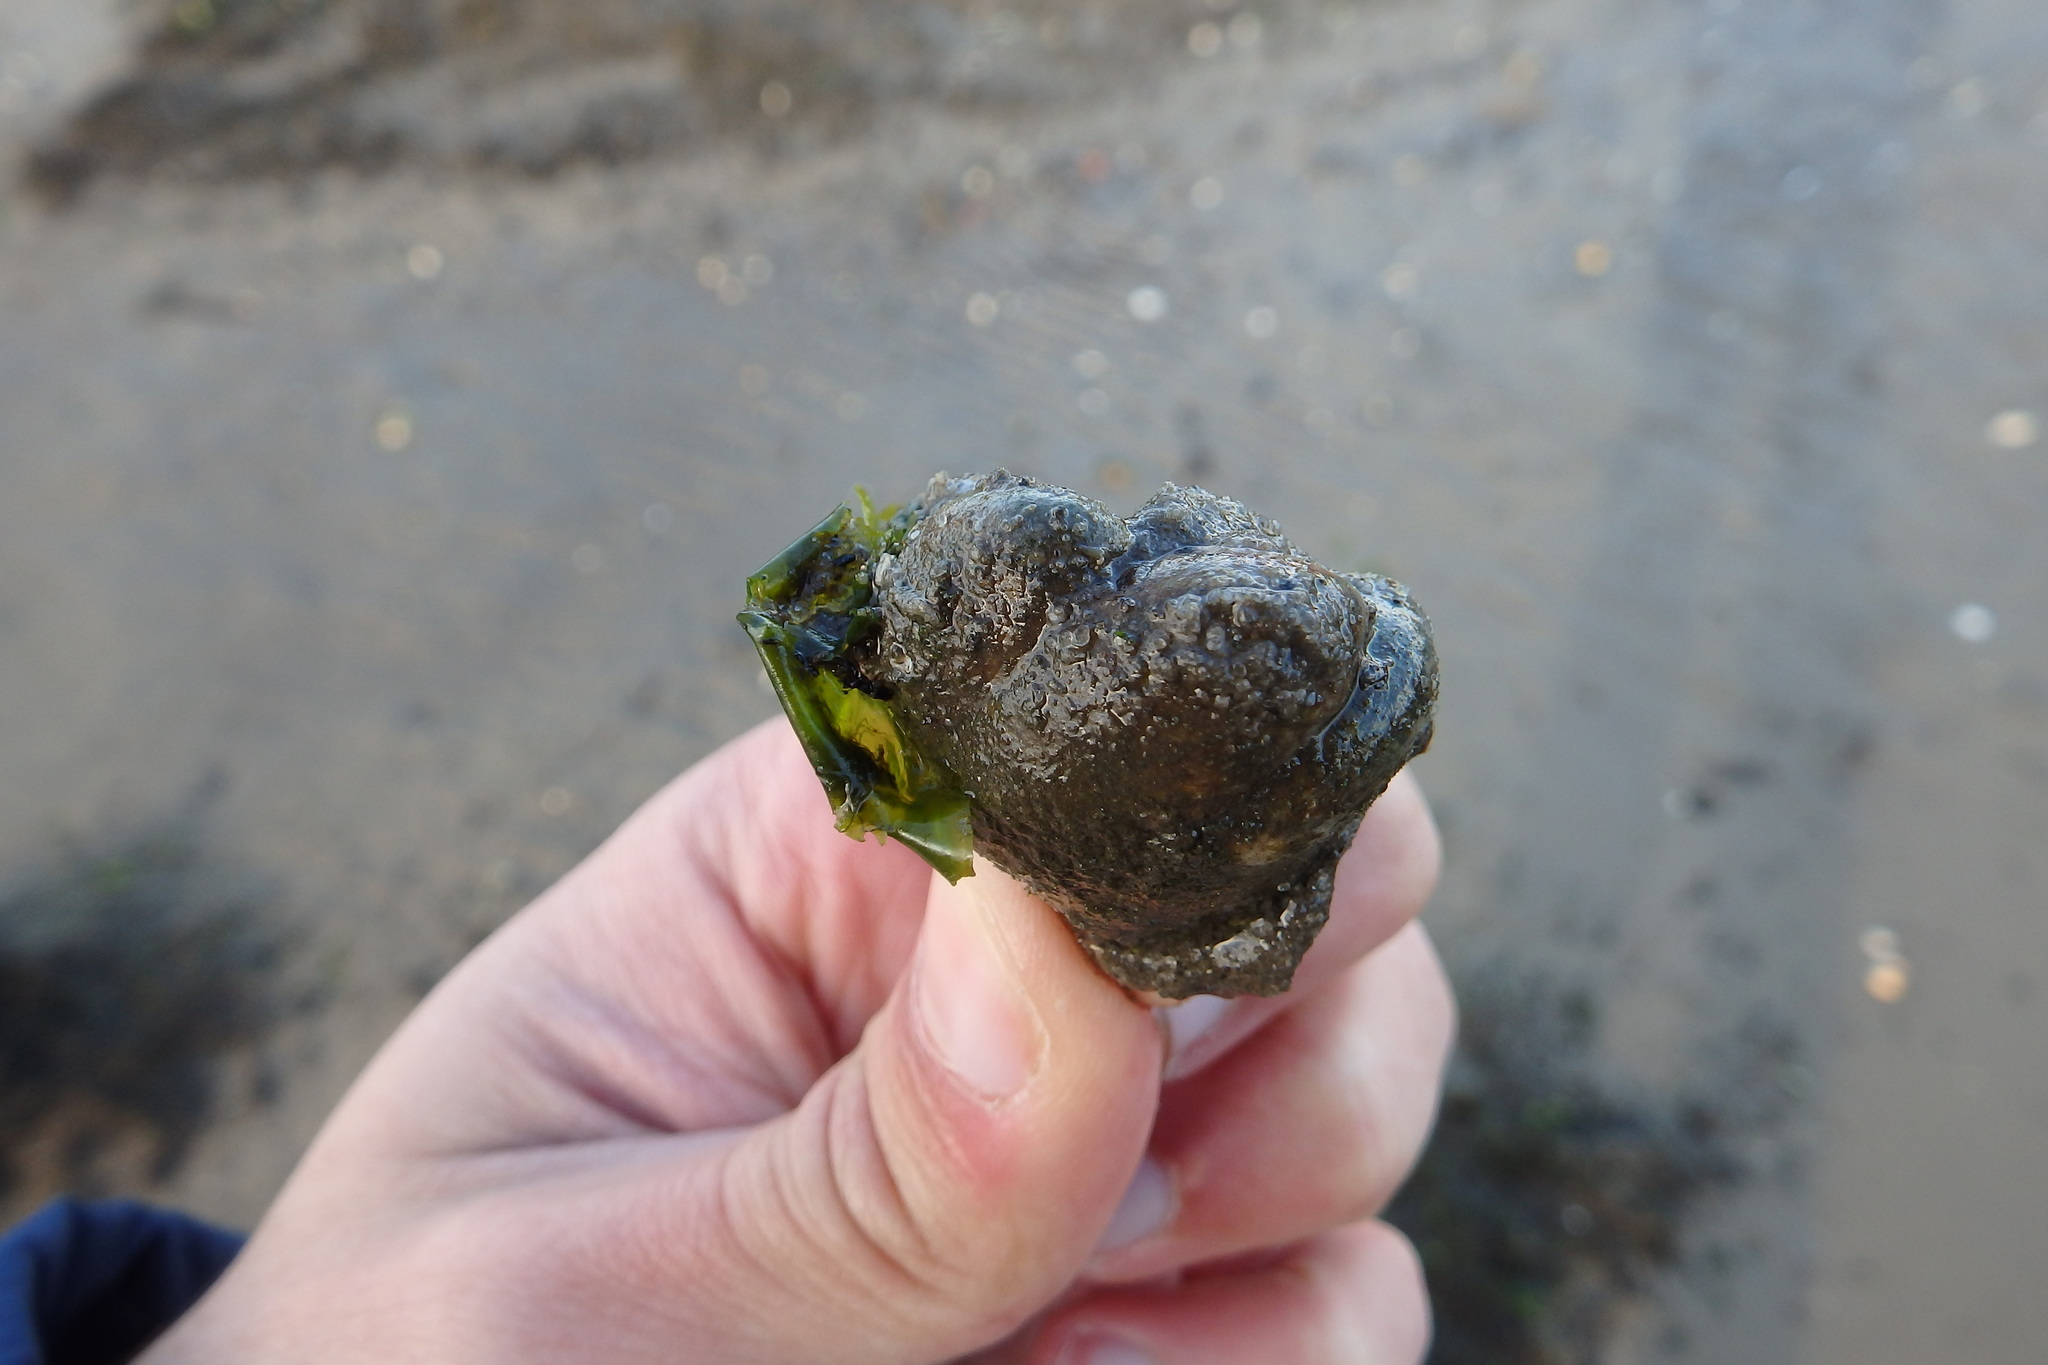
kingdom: Animalia
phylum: Mollusca
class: Gastropoda
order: Littorinimorpha
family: Calyptraeidae
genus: Crepidula
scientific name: Crepidula fornicata
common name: Slipper limpet
